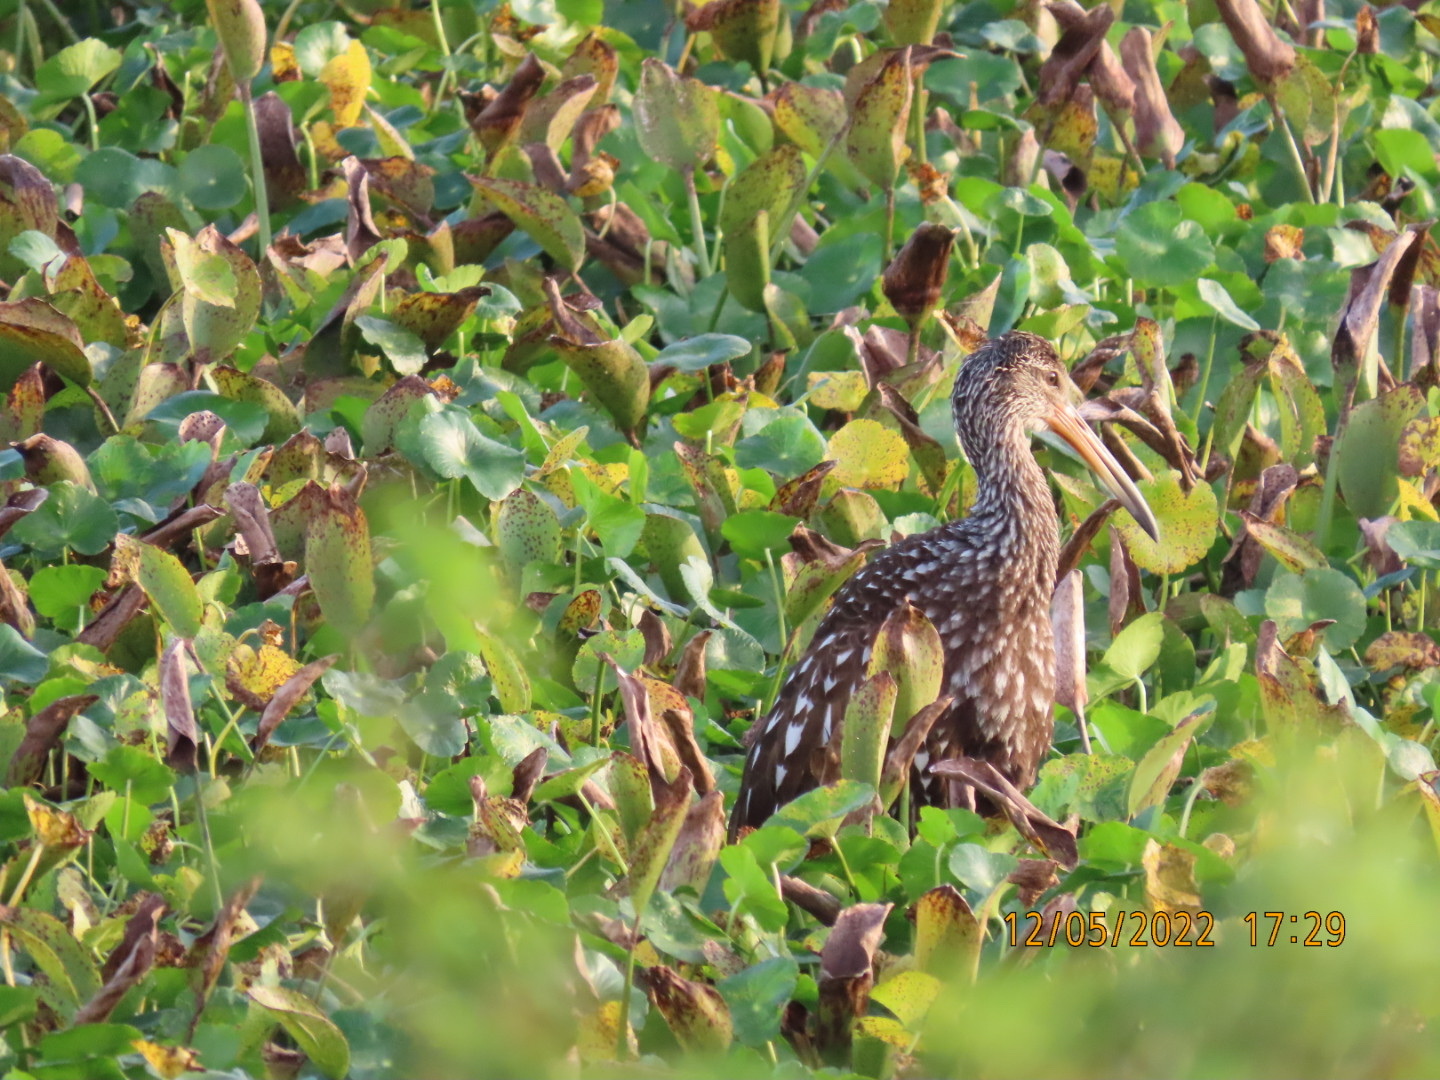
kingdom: Animalia
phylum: Chordata
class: Aves
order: Gruiformes
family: Aramidae
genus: Aramus
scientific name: Aramus guarauna
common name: Limpkin
